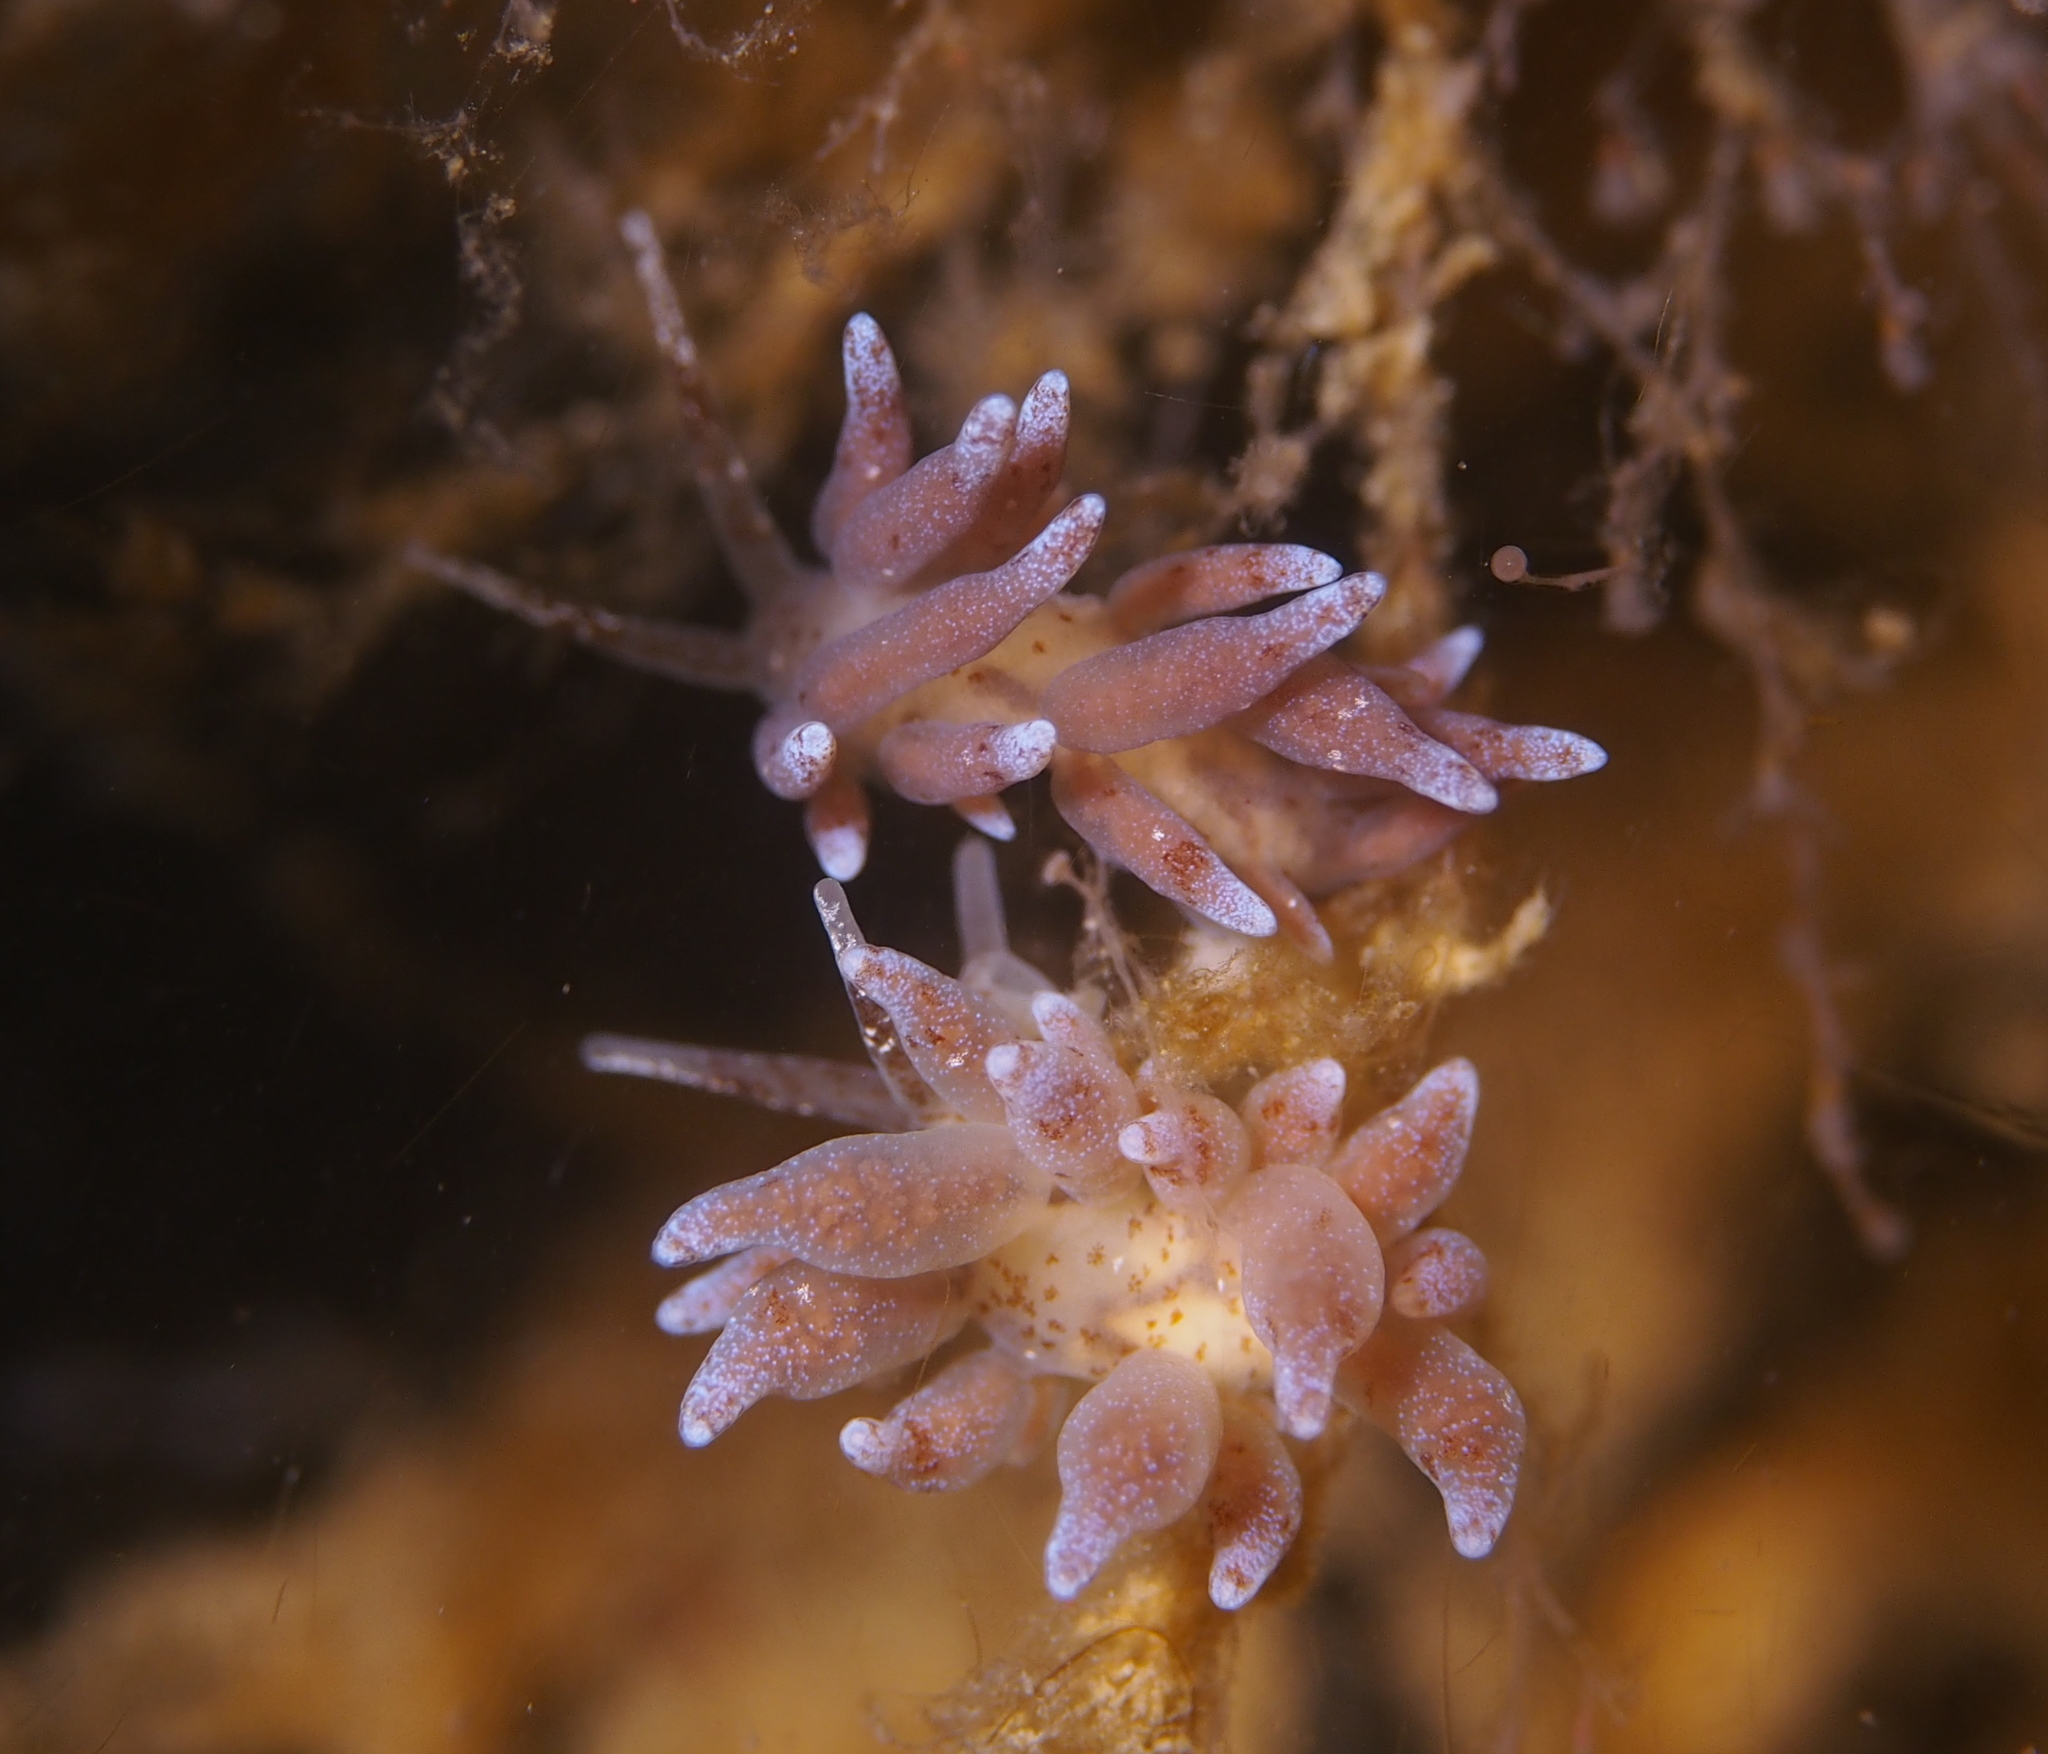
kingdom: Animalia
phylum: Mollusca
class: Gastropoda
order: Nudibranchia
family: Eubranchidae
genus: Eubranchus
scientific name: Eubranchus rupium
